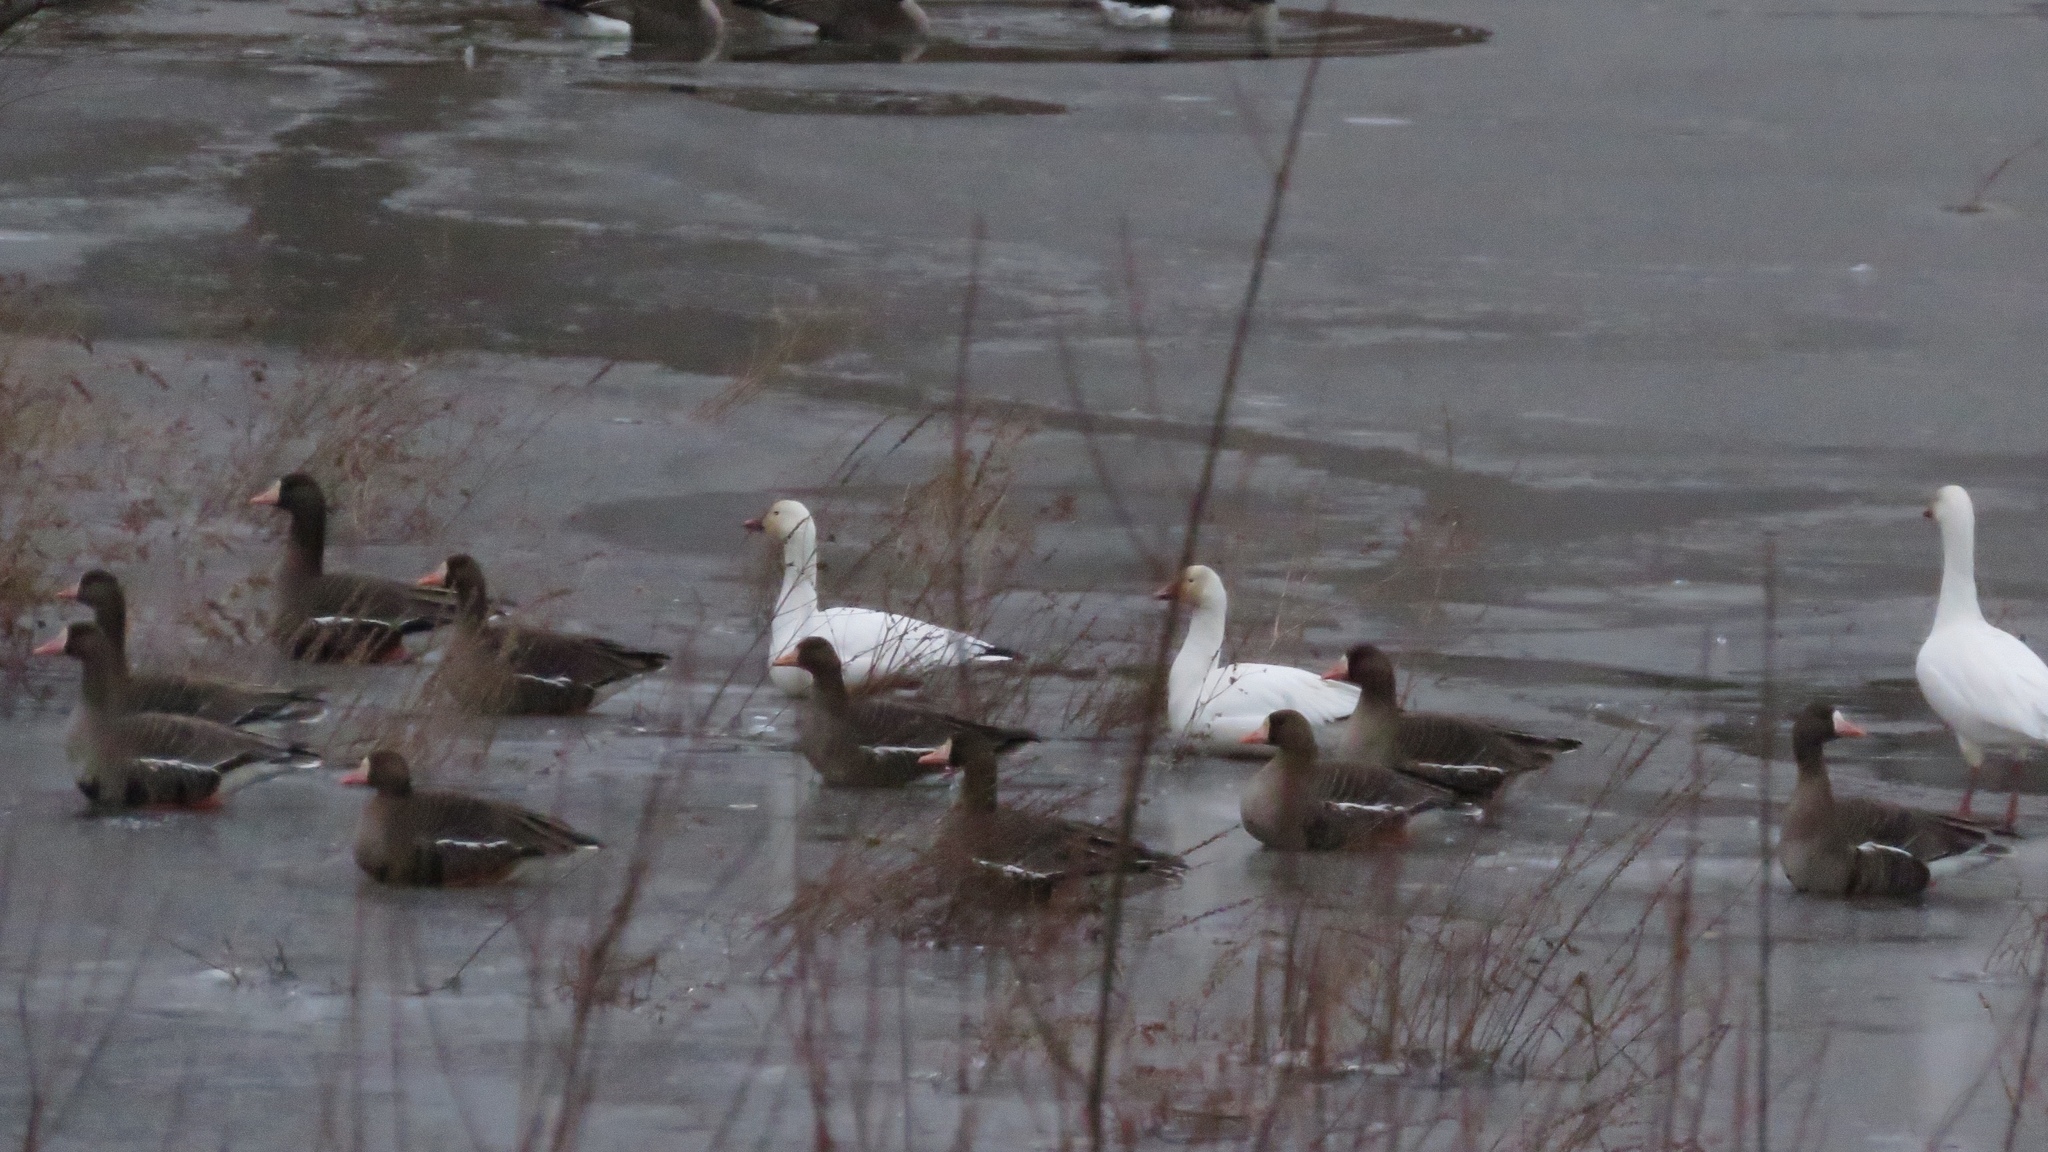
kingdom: Animalia
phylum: Chordata
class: Aves
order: Anseriformes
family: Anatidae
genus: Anser
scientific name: Anser caerulescens
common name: Snow goose
